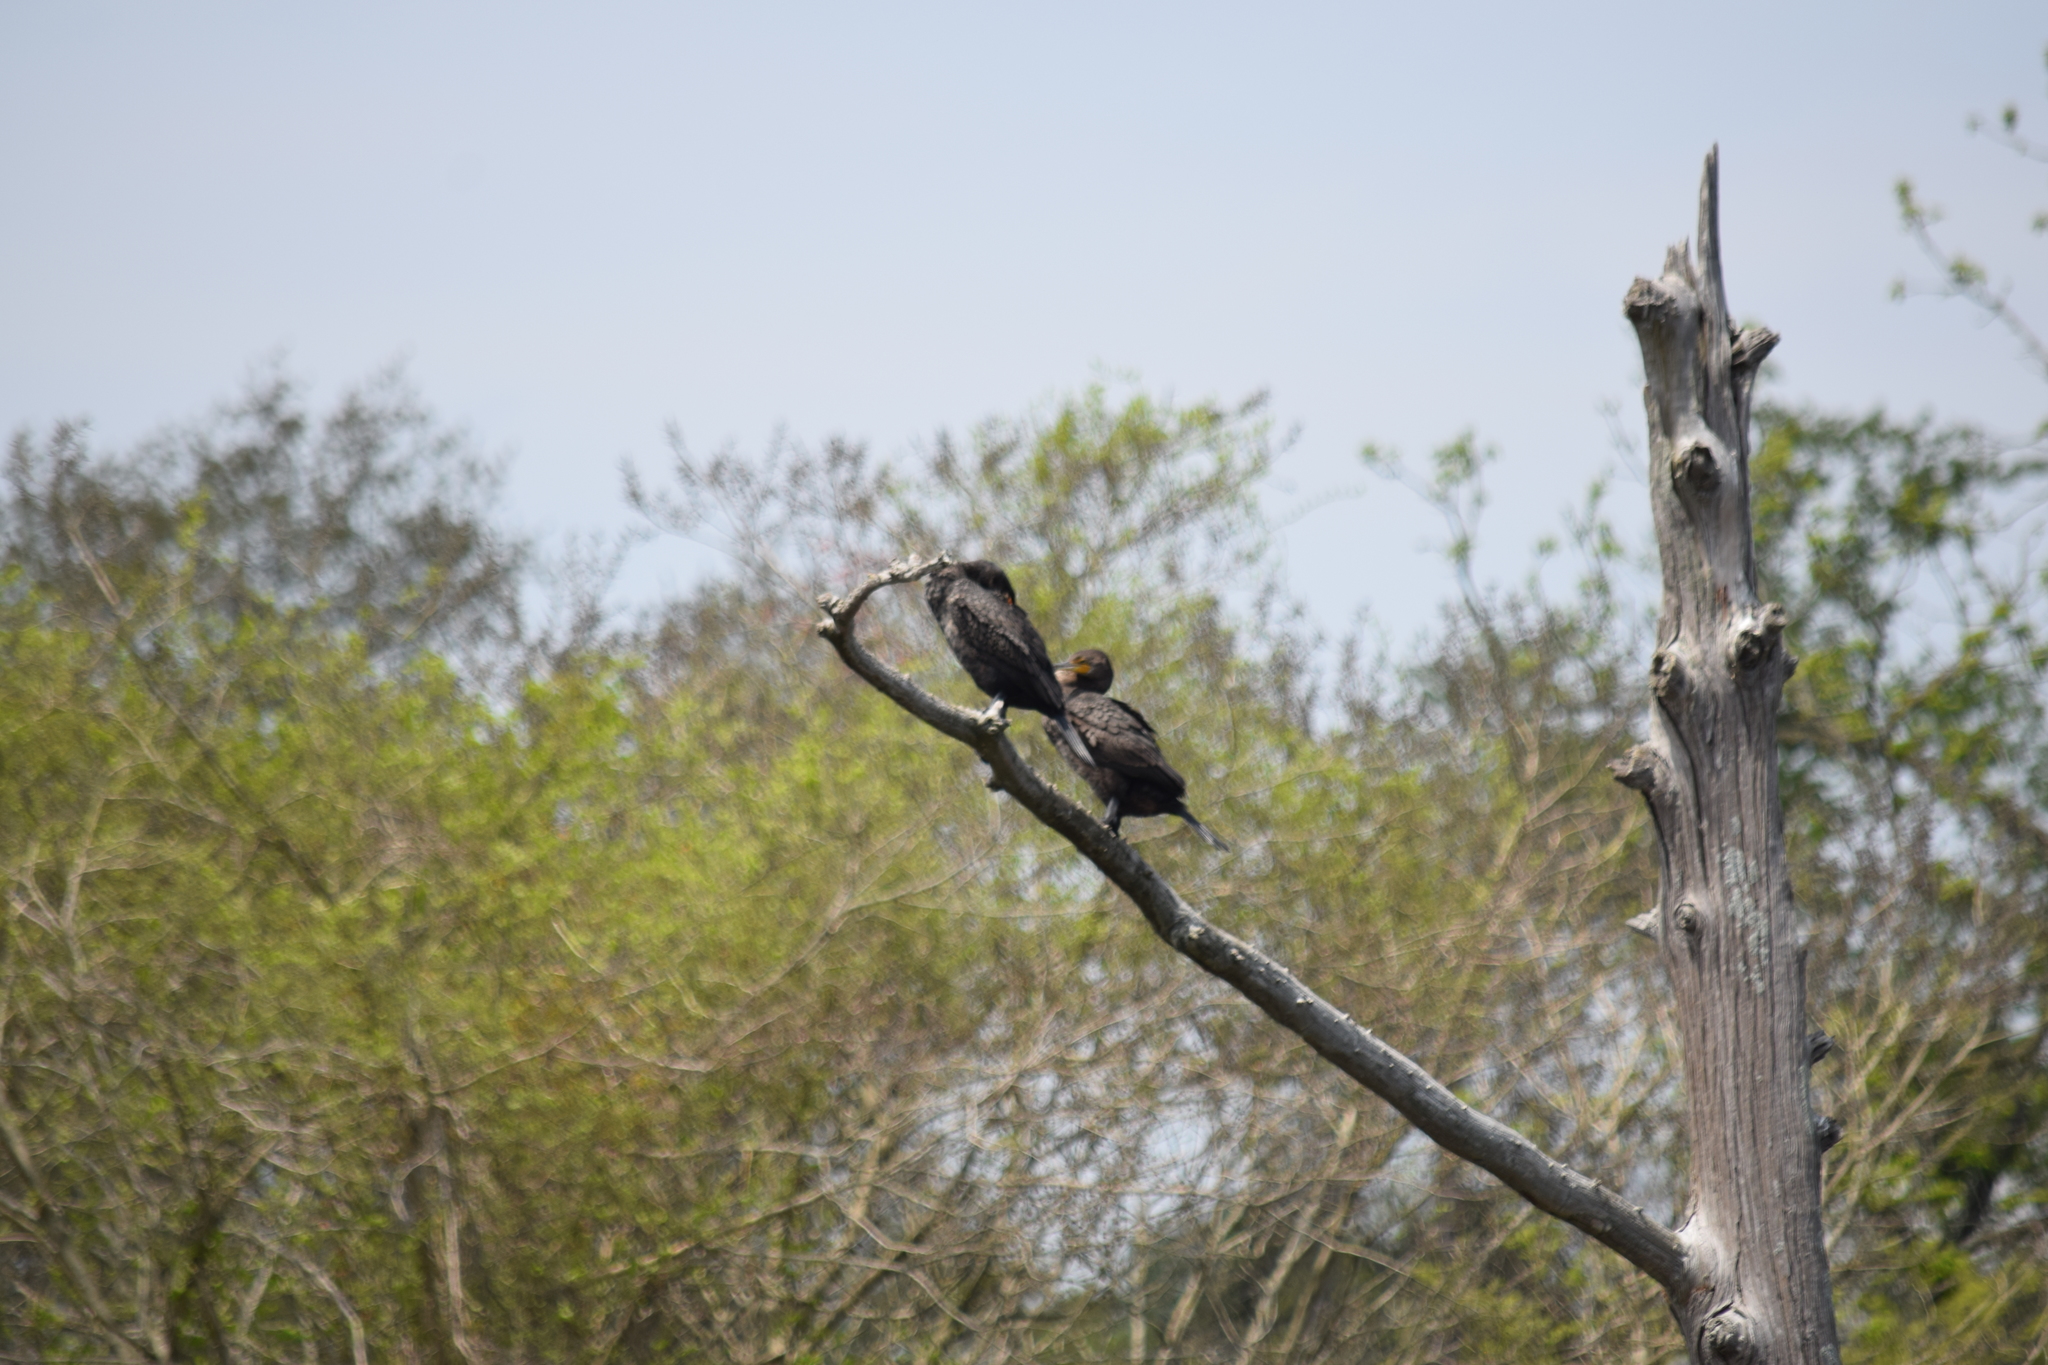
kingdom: Animalia
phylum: Chordata
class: Aves
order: Suliformes
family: Phalacrocoracidae
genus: Phalacrocorax
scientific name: Phalacrocorax auritus
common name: Double-crested cormorant
